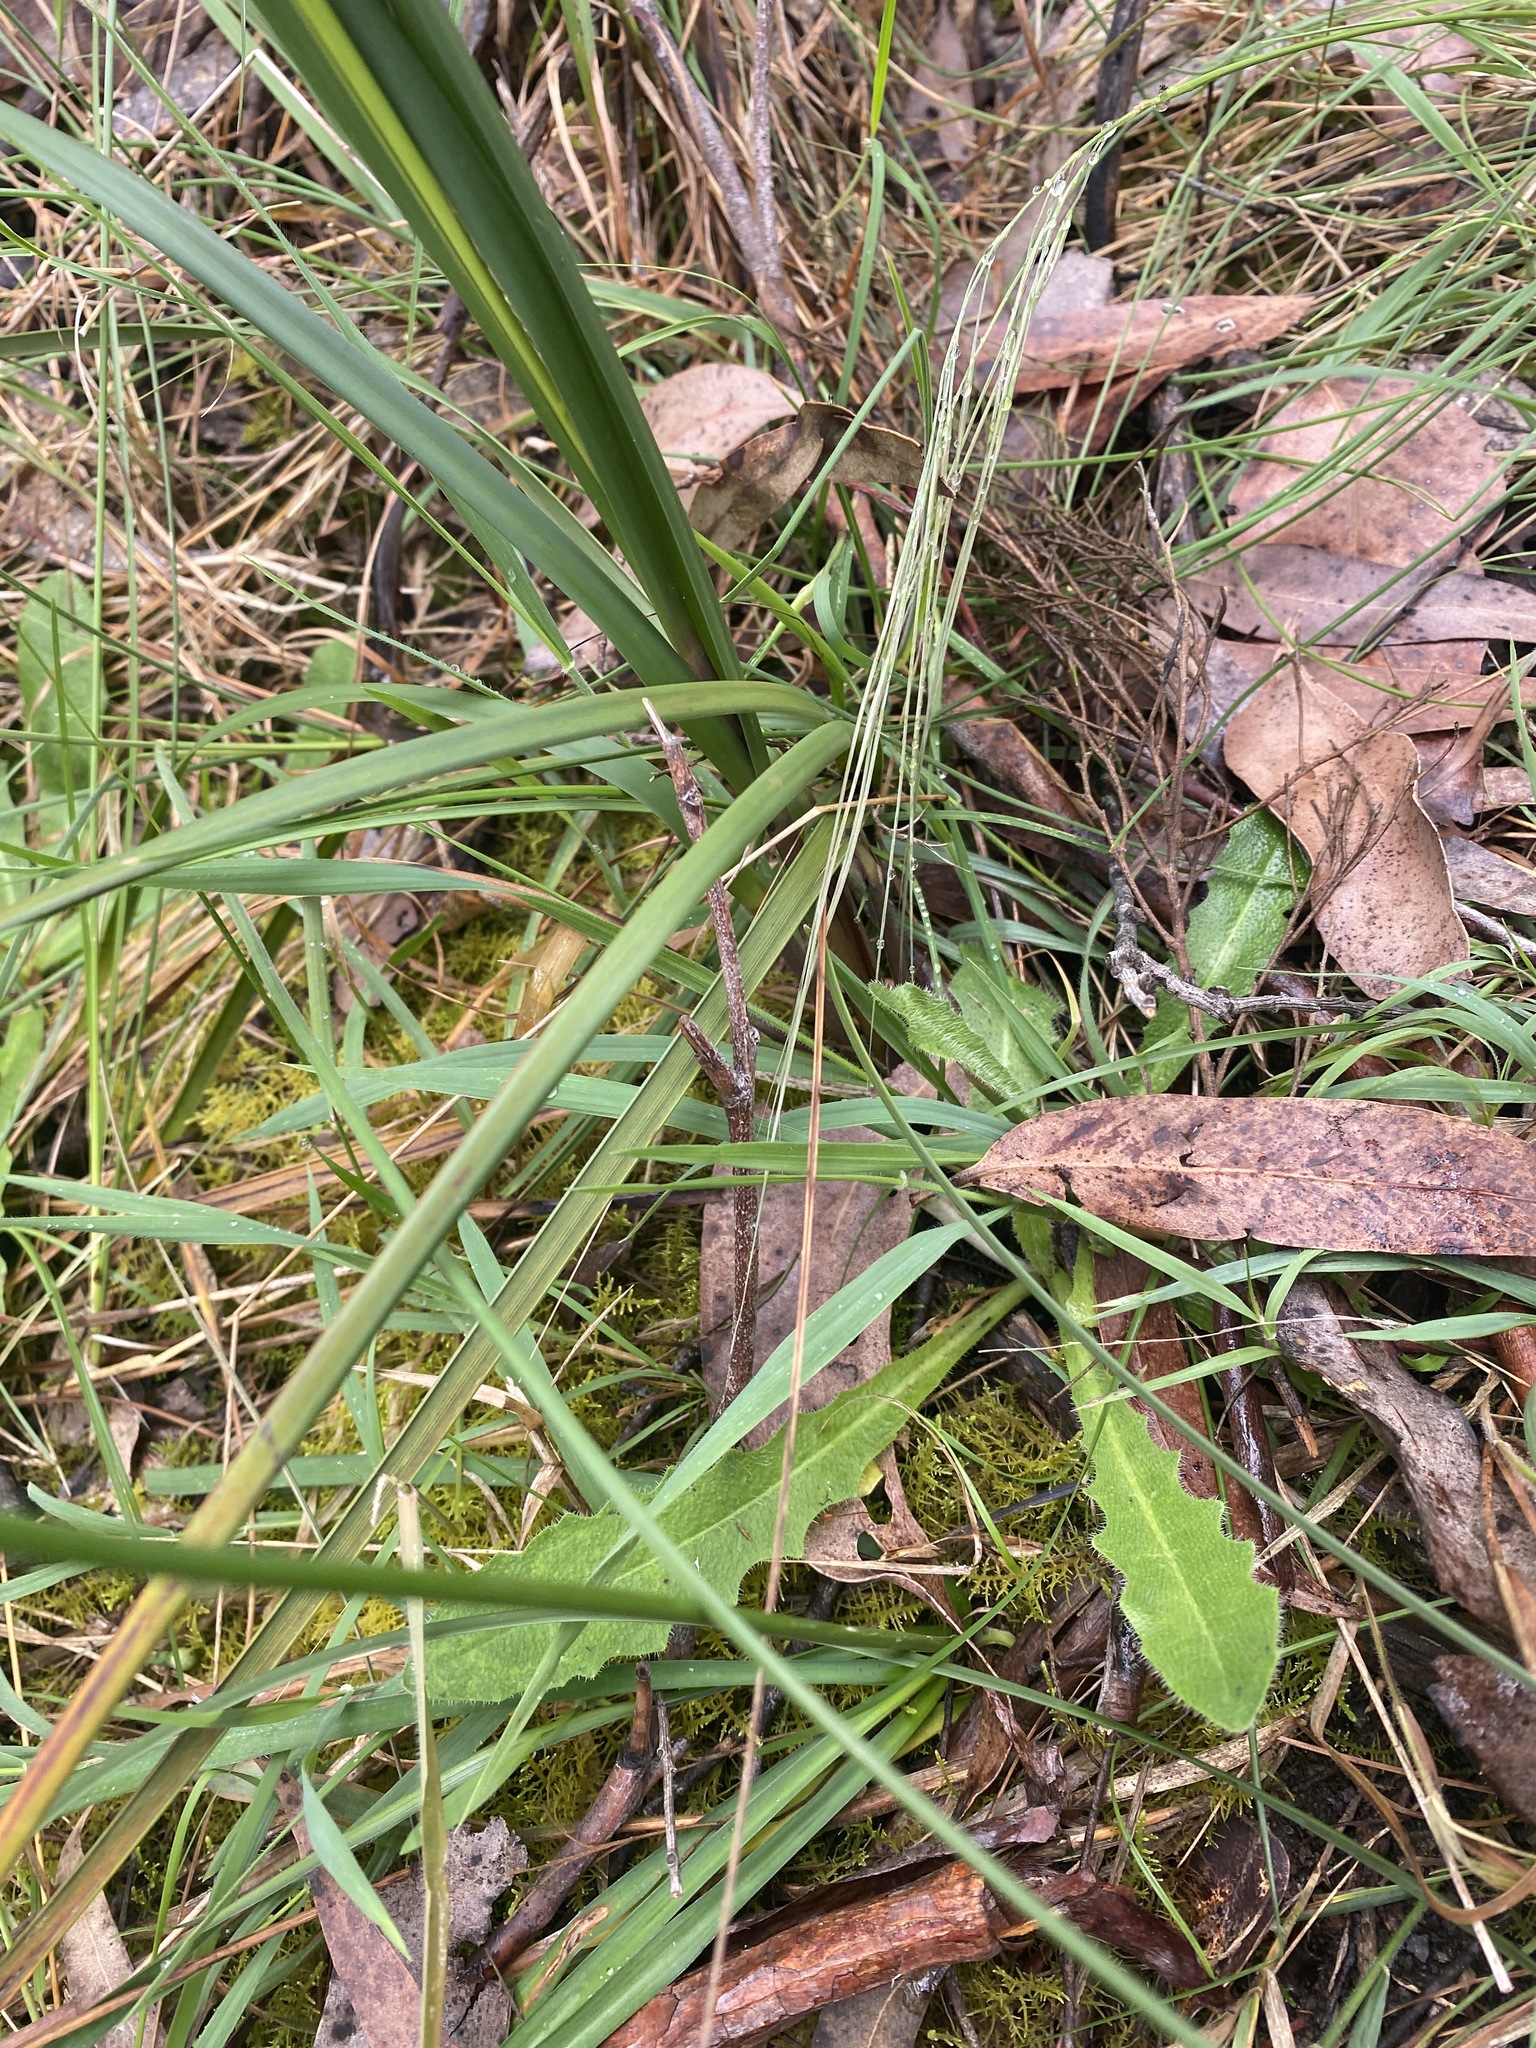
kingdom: Plantae
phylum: Tracheophyta
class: Magnoliopsida
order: Asterales
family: Asteraceae
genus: Coronidium
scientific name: Coronidium scorpioides
